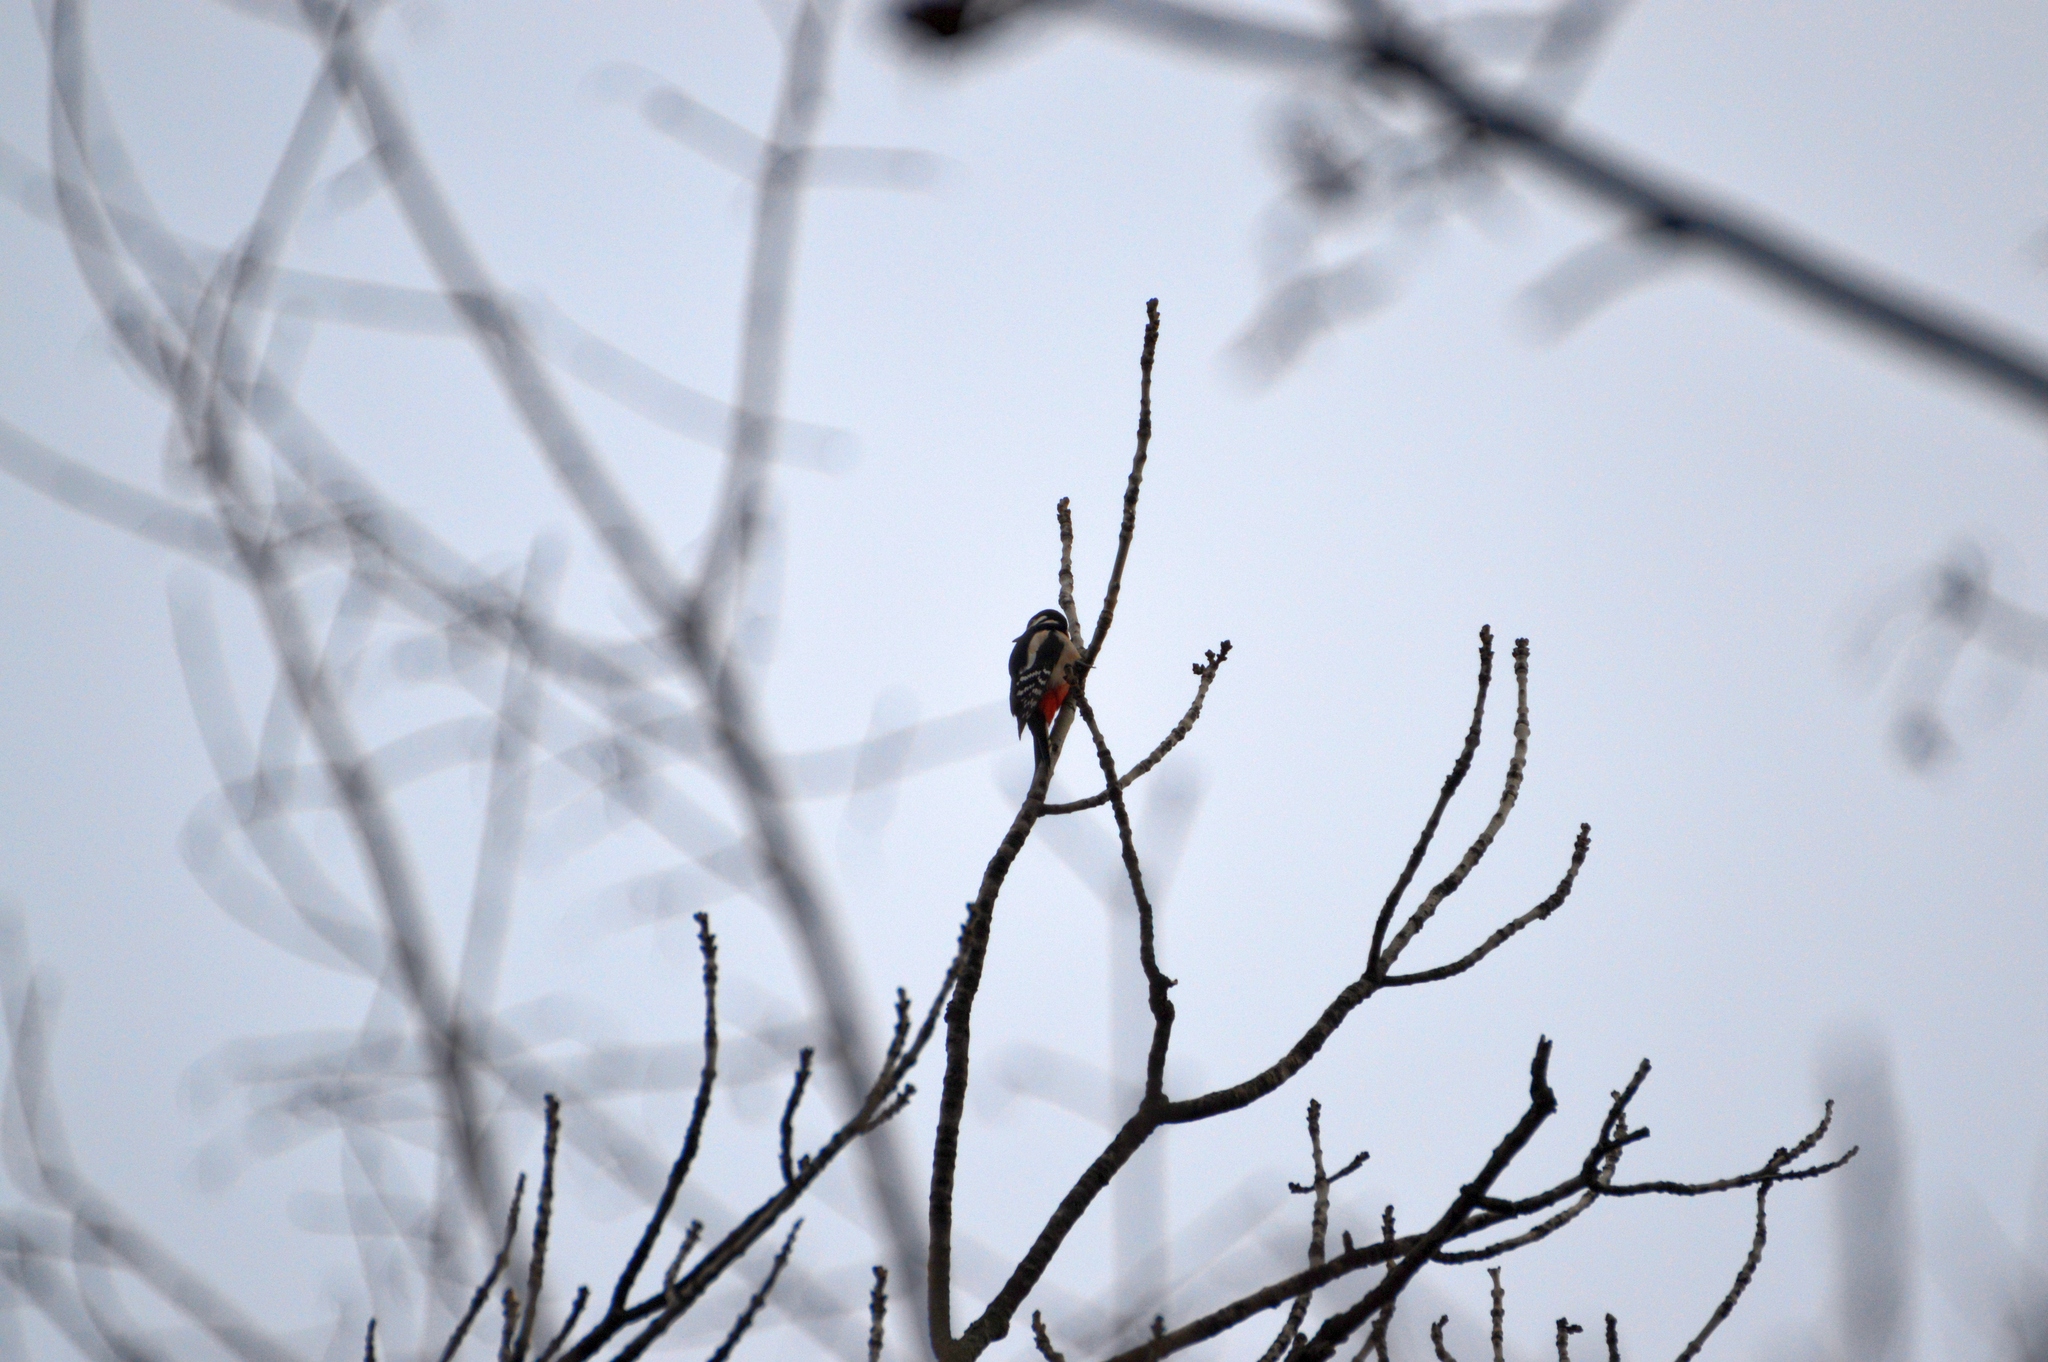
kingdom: Animalia
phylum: Chordata
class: Aves
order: Piciformes
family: Picidae
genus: Dendrocopos
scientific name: Dendrocopos major
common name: Great spotted woodpecker
